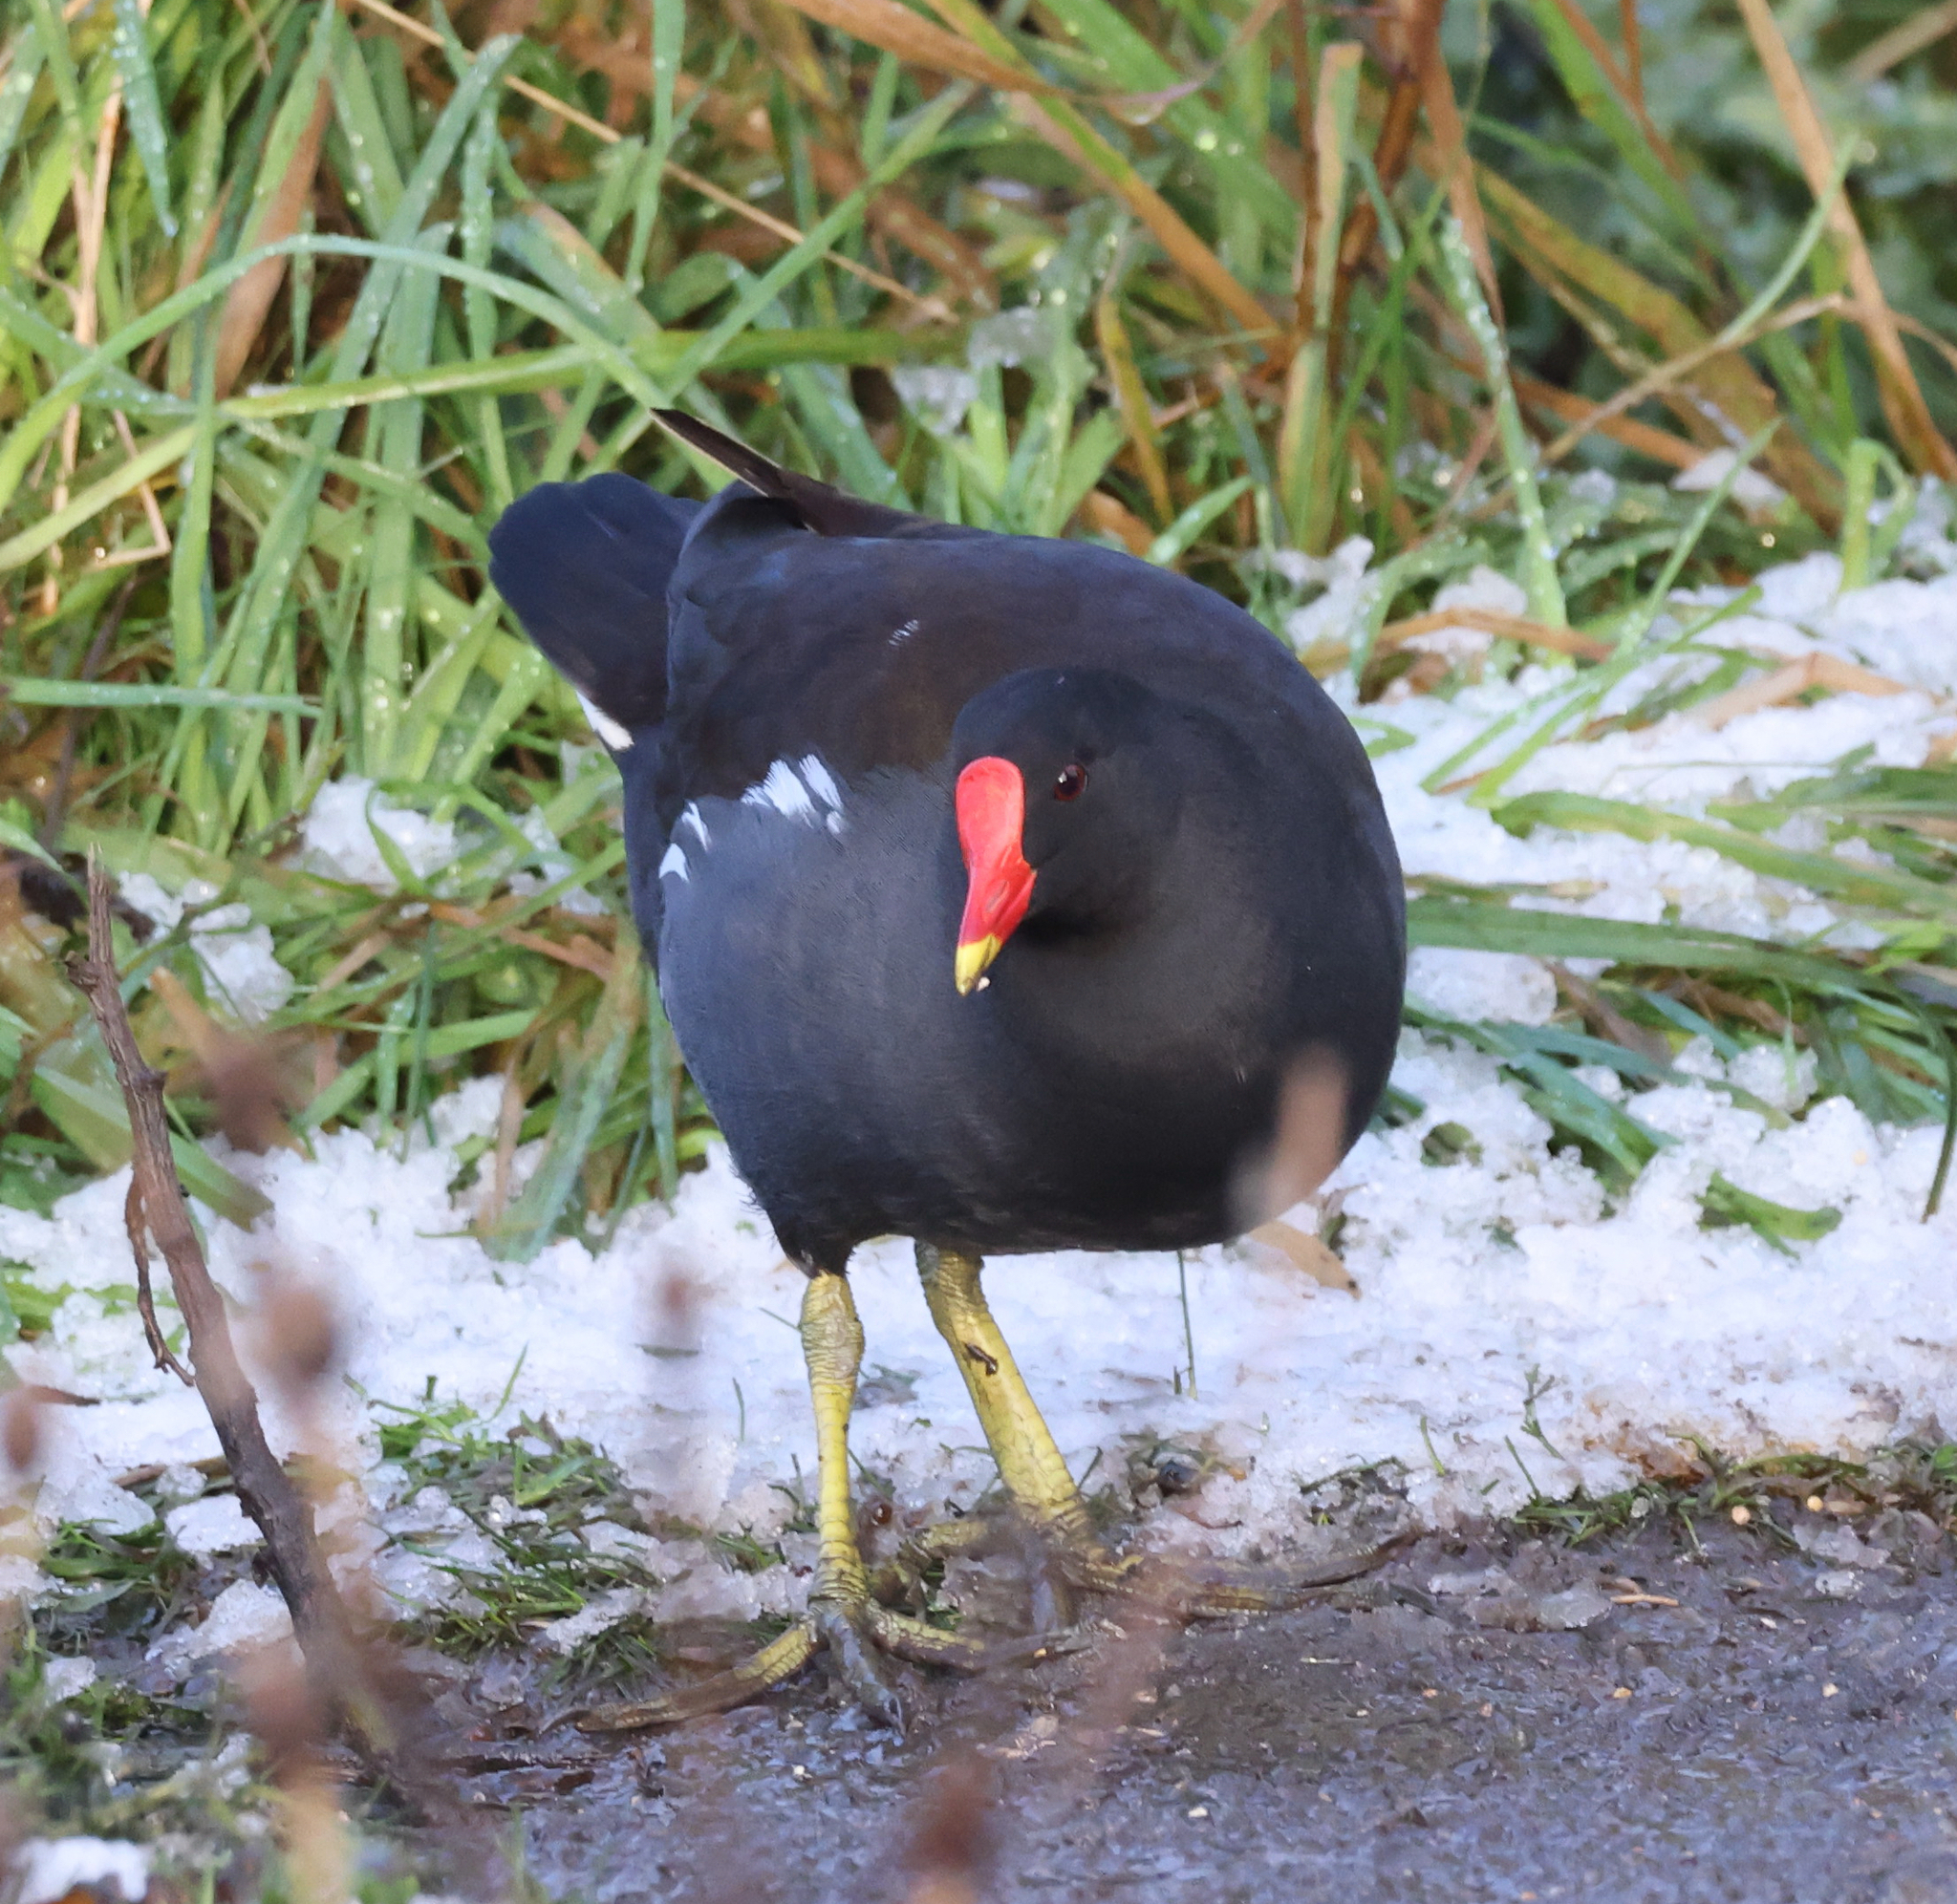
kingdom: Animalia
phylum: Chordata
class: Aves
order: Gruiformes
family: Rallidae
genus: Gallinula
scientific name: Gallinula chloropus
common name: Common moorhen
